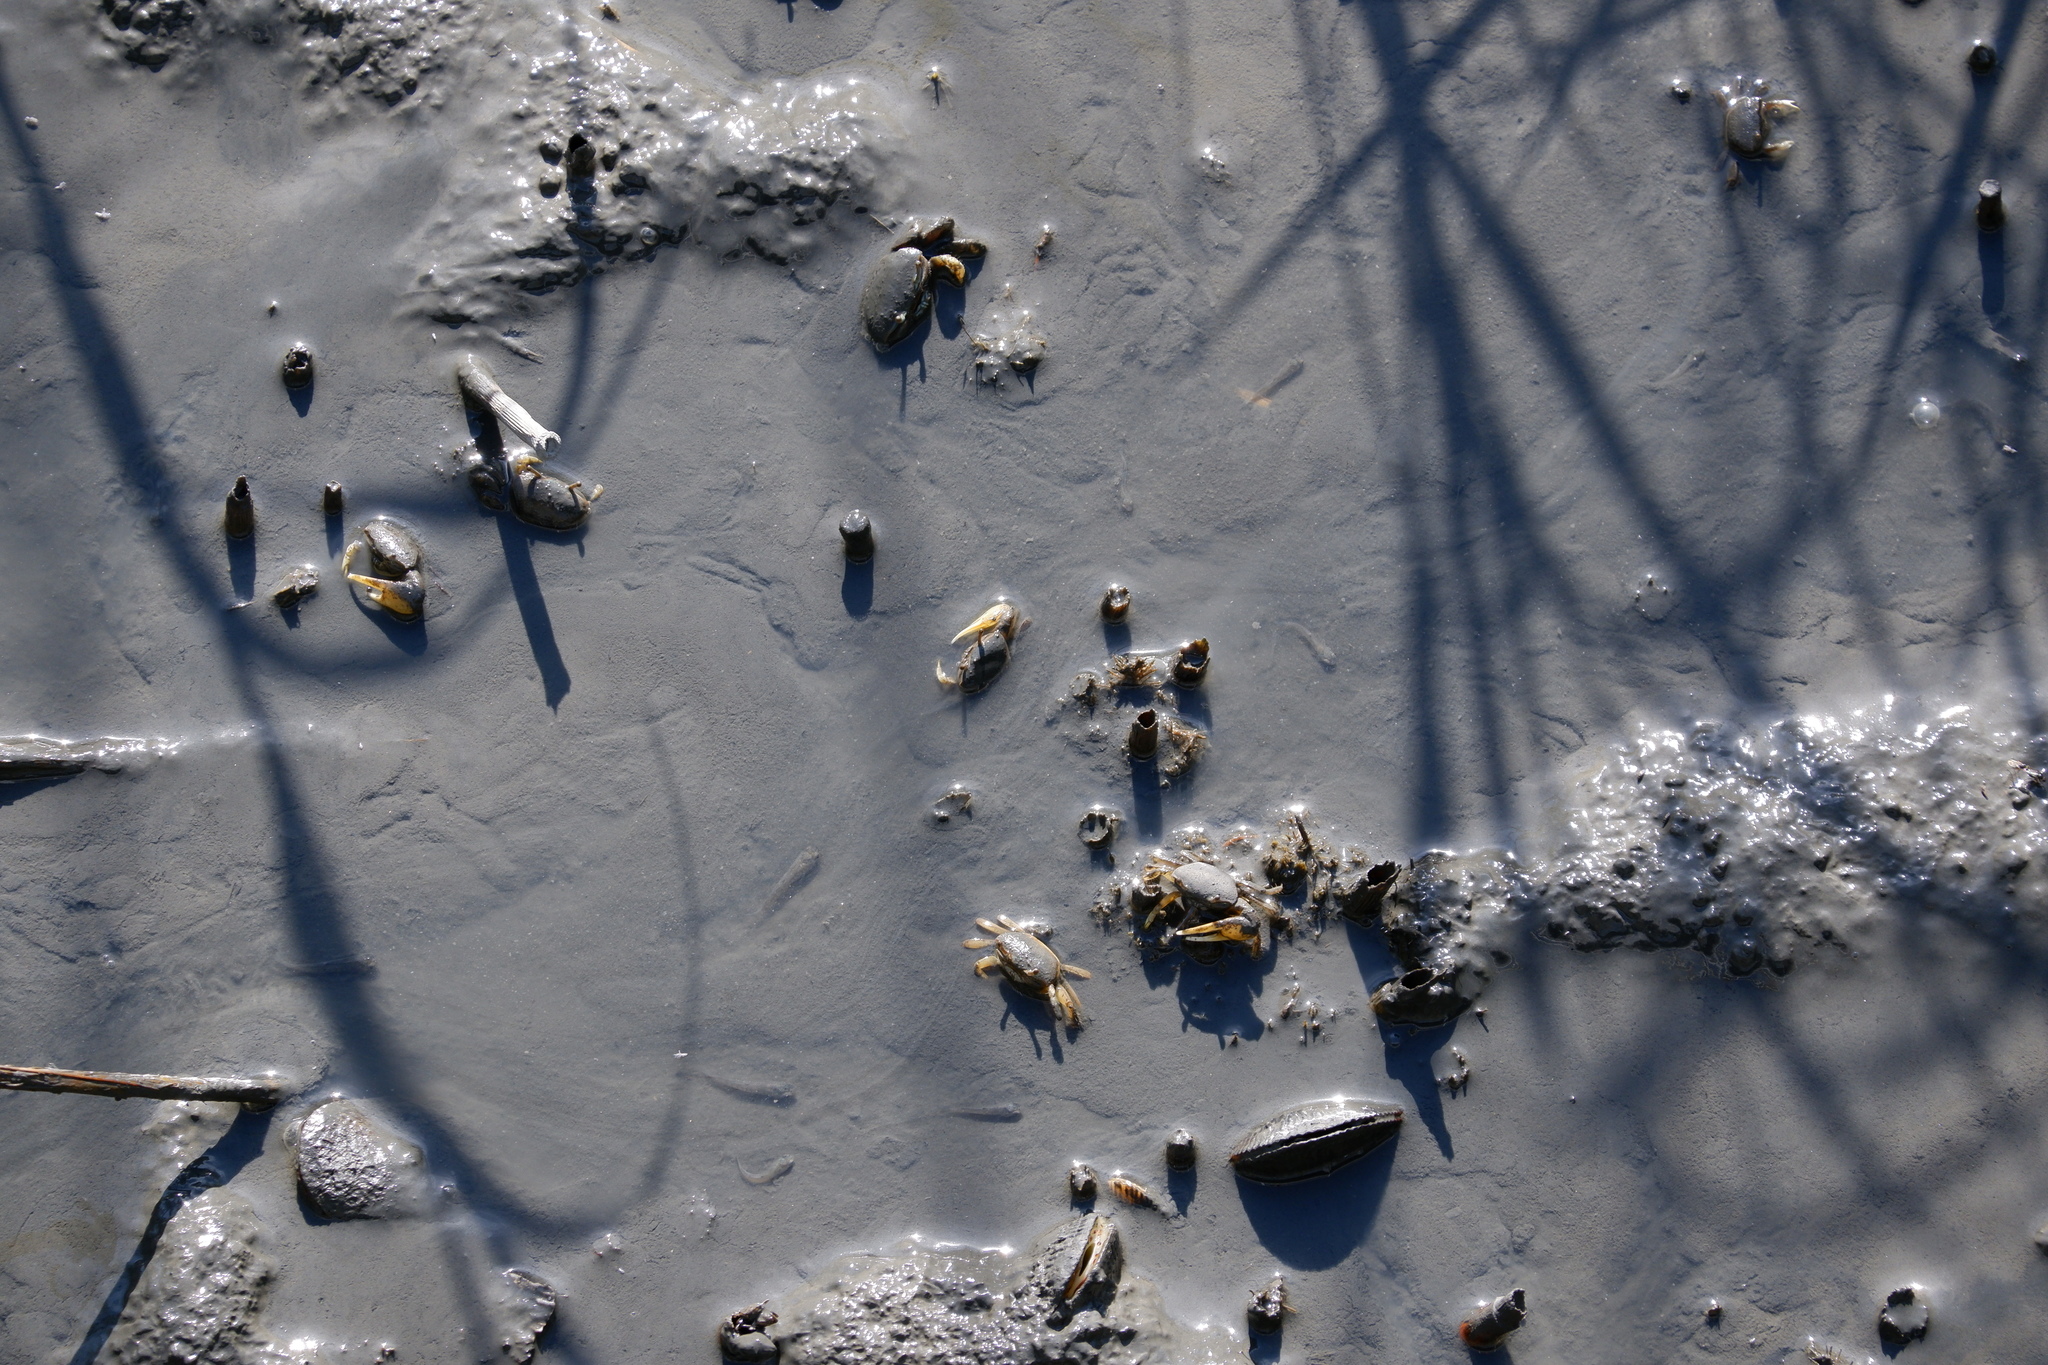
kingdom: Animalia
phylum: Mollusca
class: Bivalvia
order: Mytilida
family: Mytilidae
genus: Geukensia
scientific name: Geukensia demissa
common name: Ribbed mussel
